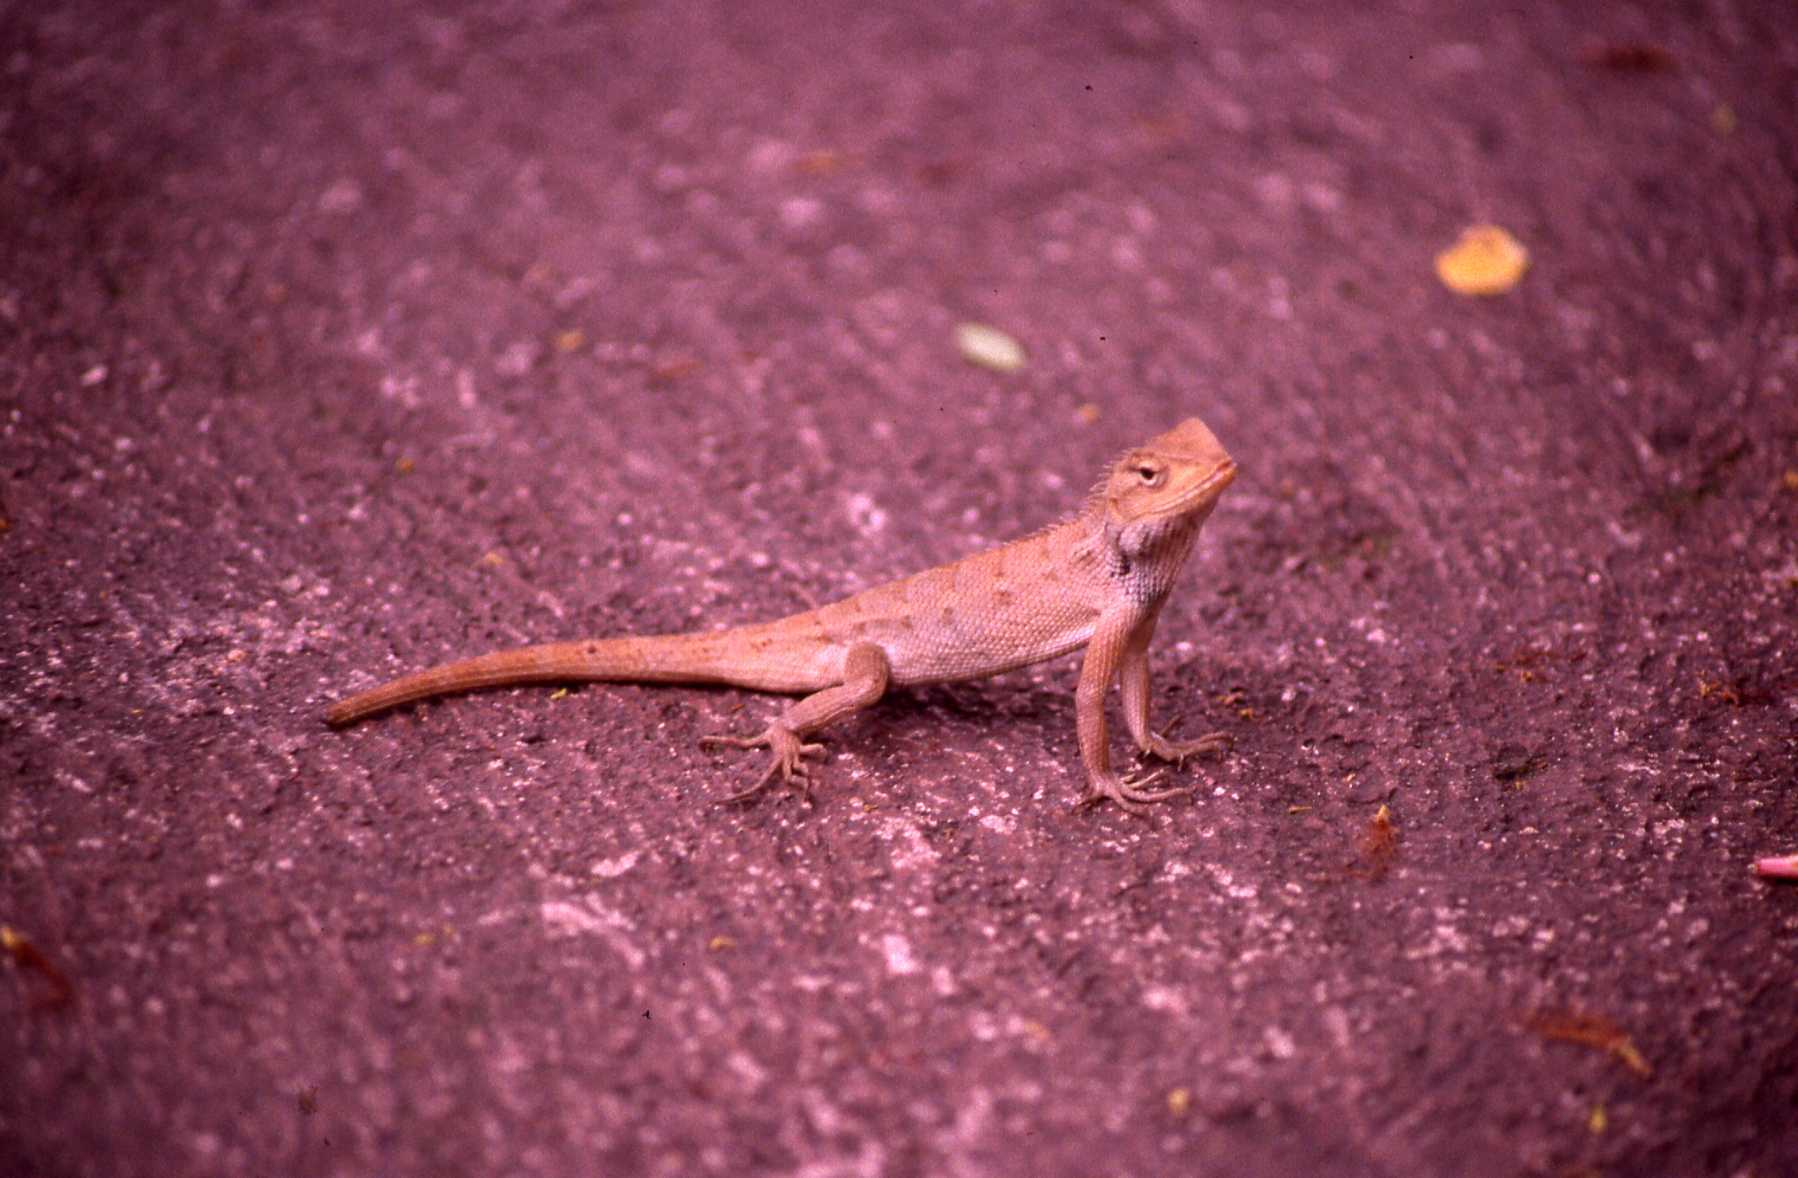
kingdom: Animalia
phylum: Chordata
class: Squamata
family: Agamidae
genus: Calotes
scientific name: Calotes versicolor
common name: Oriental garden lizard
